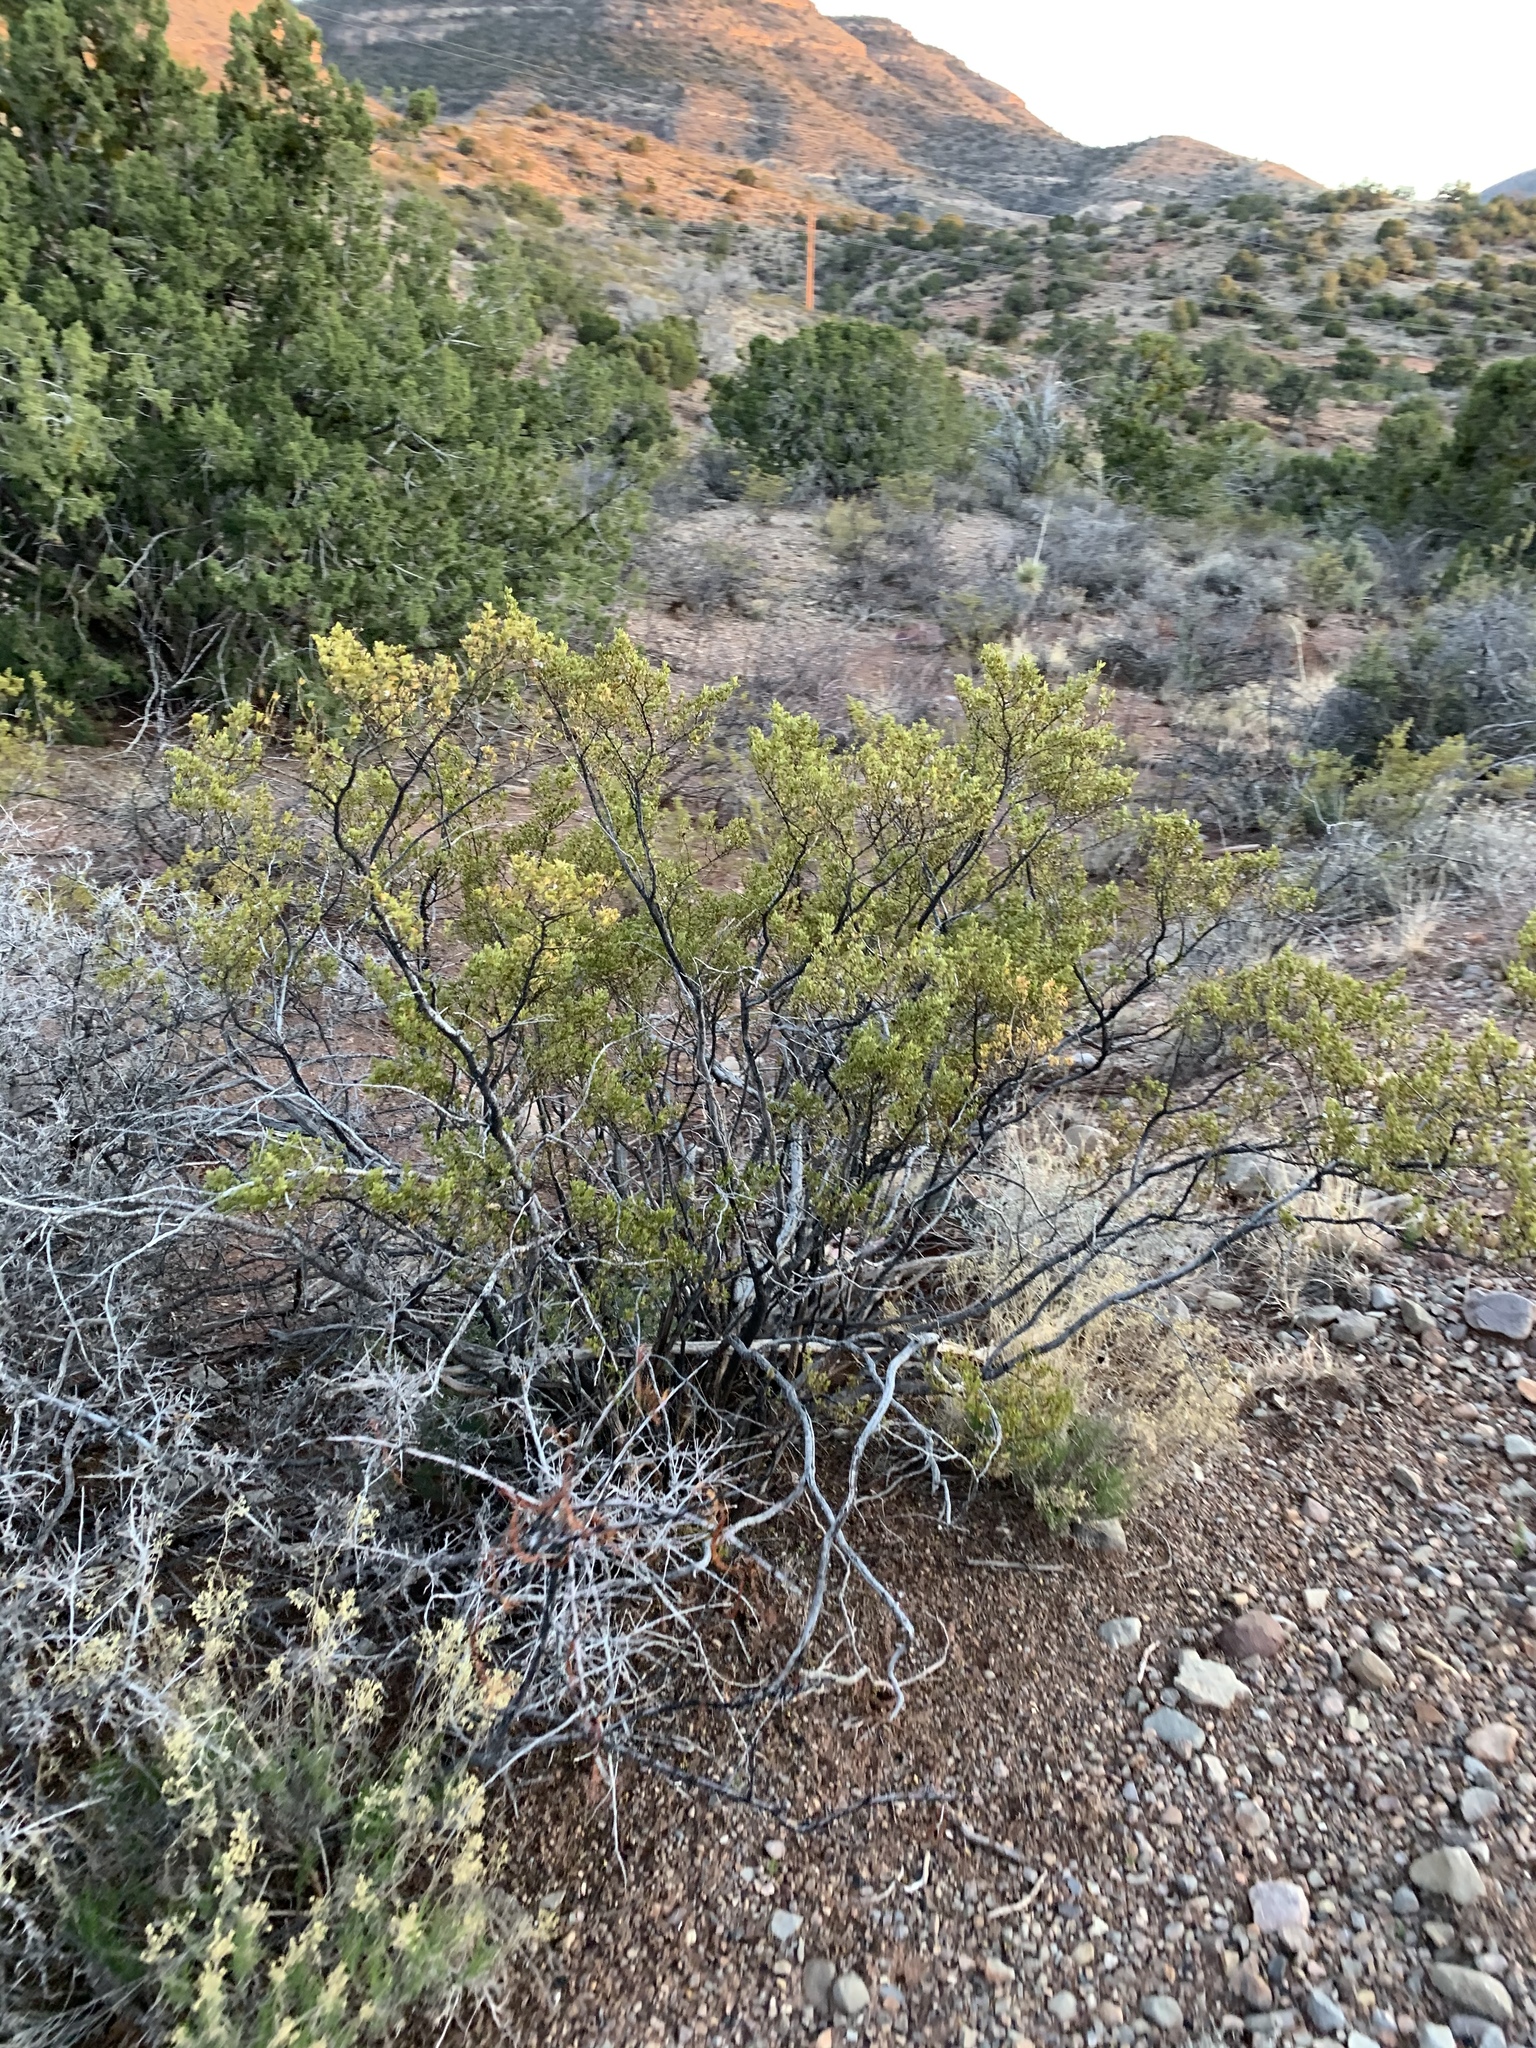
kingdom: Plantae
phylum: Tracheophyta
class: Magnoliopsida
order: Zygophyllales
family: Zygophyllaceae
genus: Larrea
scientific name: Larrea tridentata
